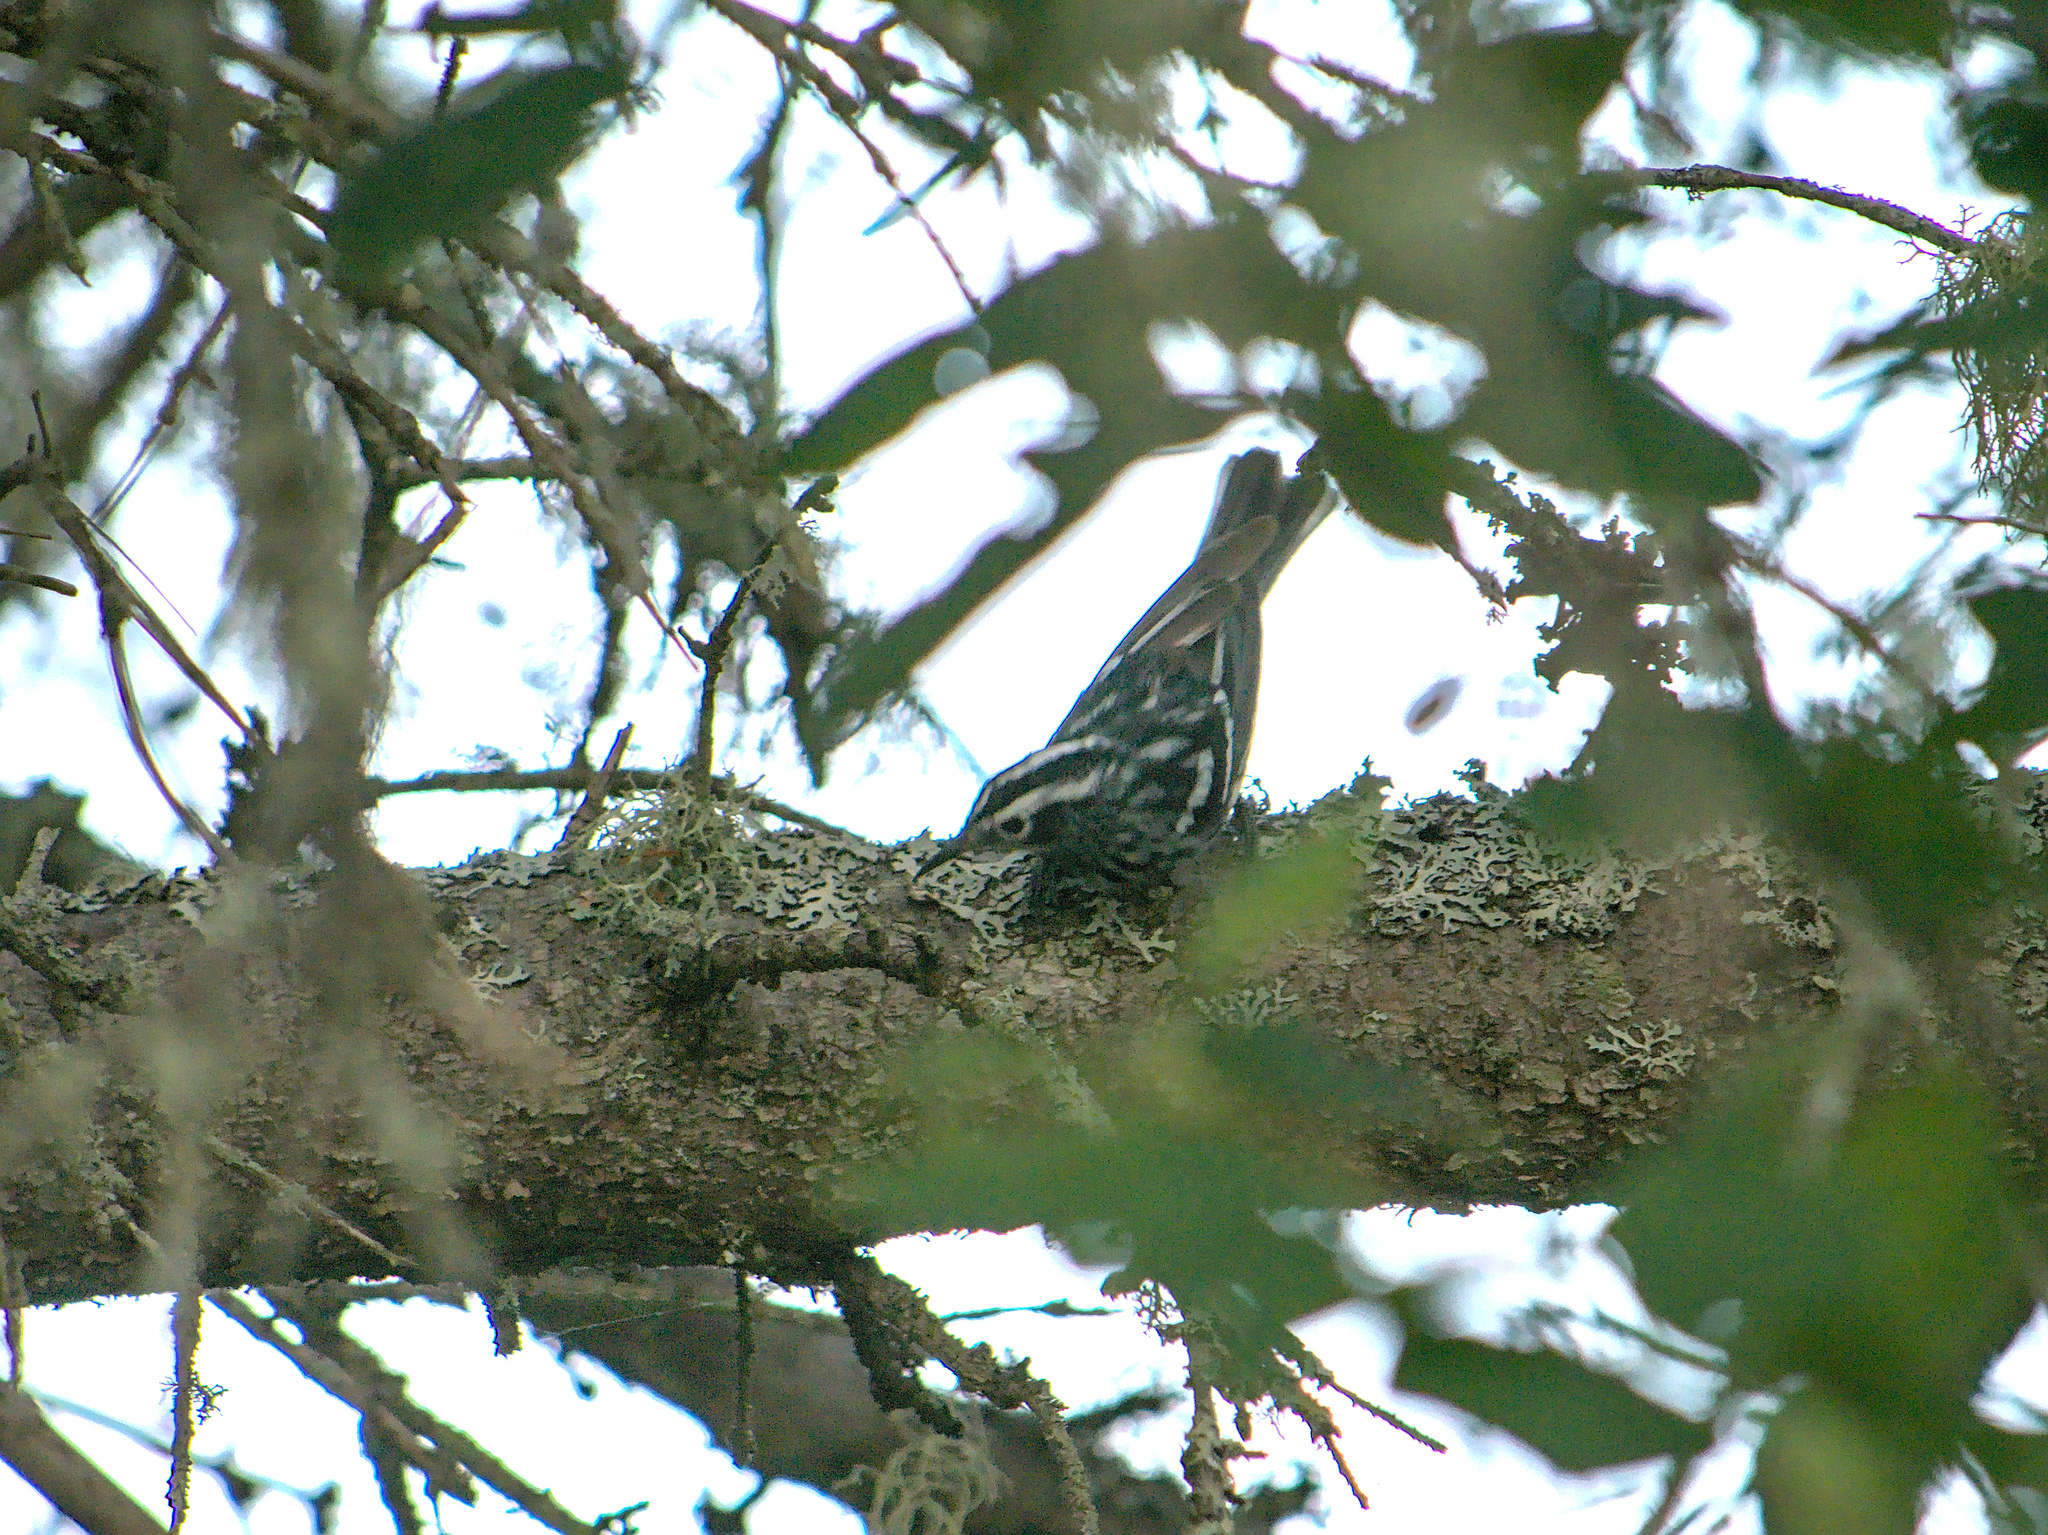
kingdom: Animalia
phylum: Chordata
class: Aves
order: Passeriformes
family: Parulidae
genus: Mniotilta
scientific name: Mniotilta varia
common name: Black-and-white warbler
